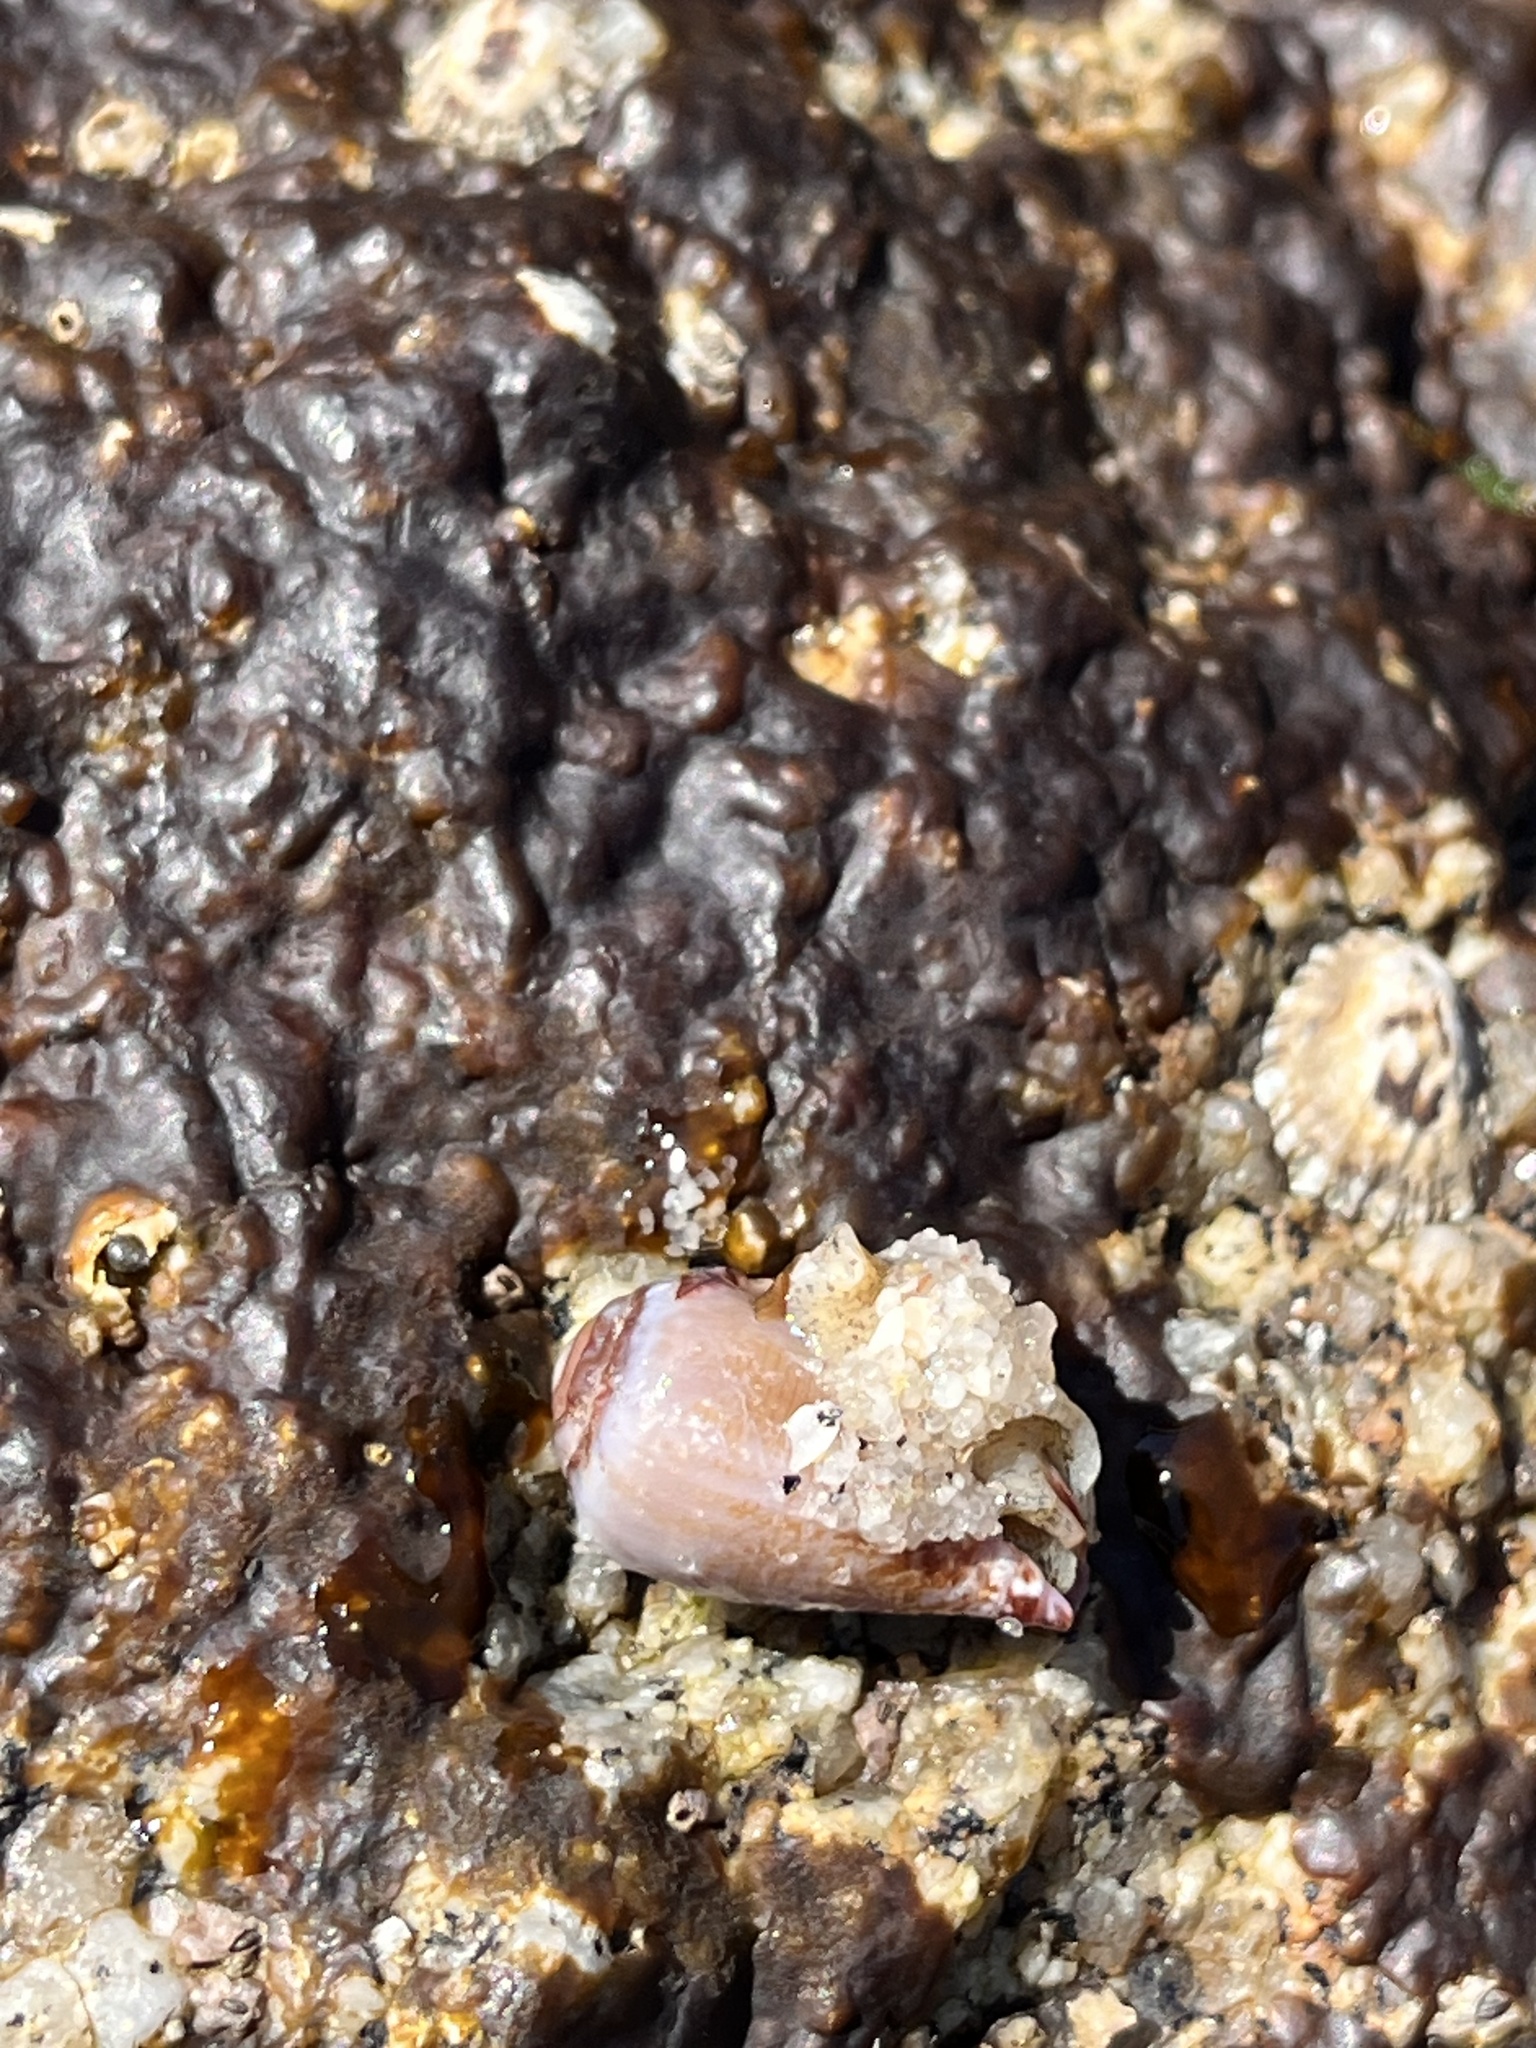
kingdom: Animalia
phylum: Mollusca
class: Gastropoda
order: Neogastropoda
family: Conidae
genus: Californiconus
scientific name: Californiconus californicus
